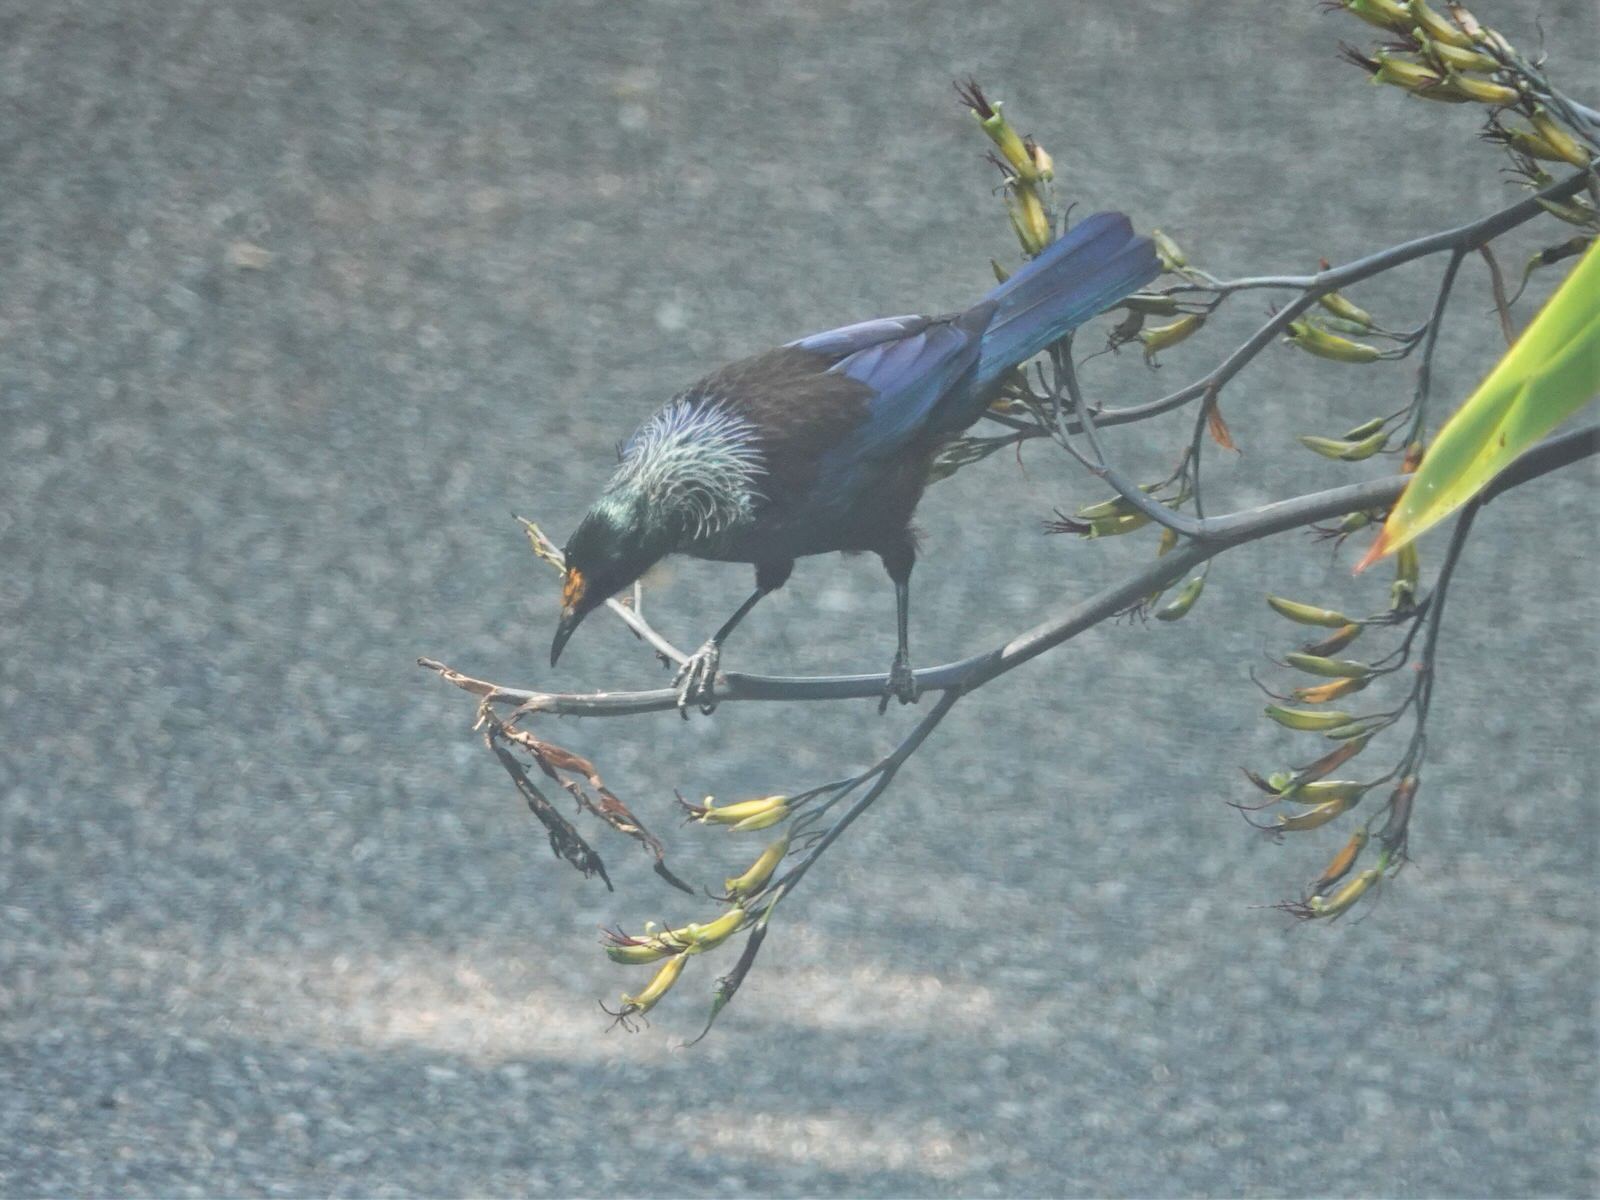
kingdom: Animalia
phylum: Chordata
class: Aves
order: Passeriformes
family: Meliphagidae
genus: Prosthemadera
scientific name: Prosthemadera novaeseelandiae
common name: Tui
